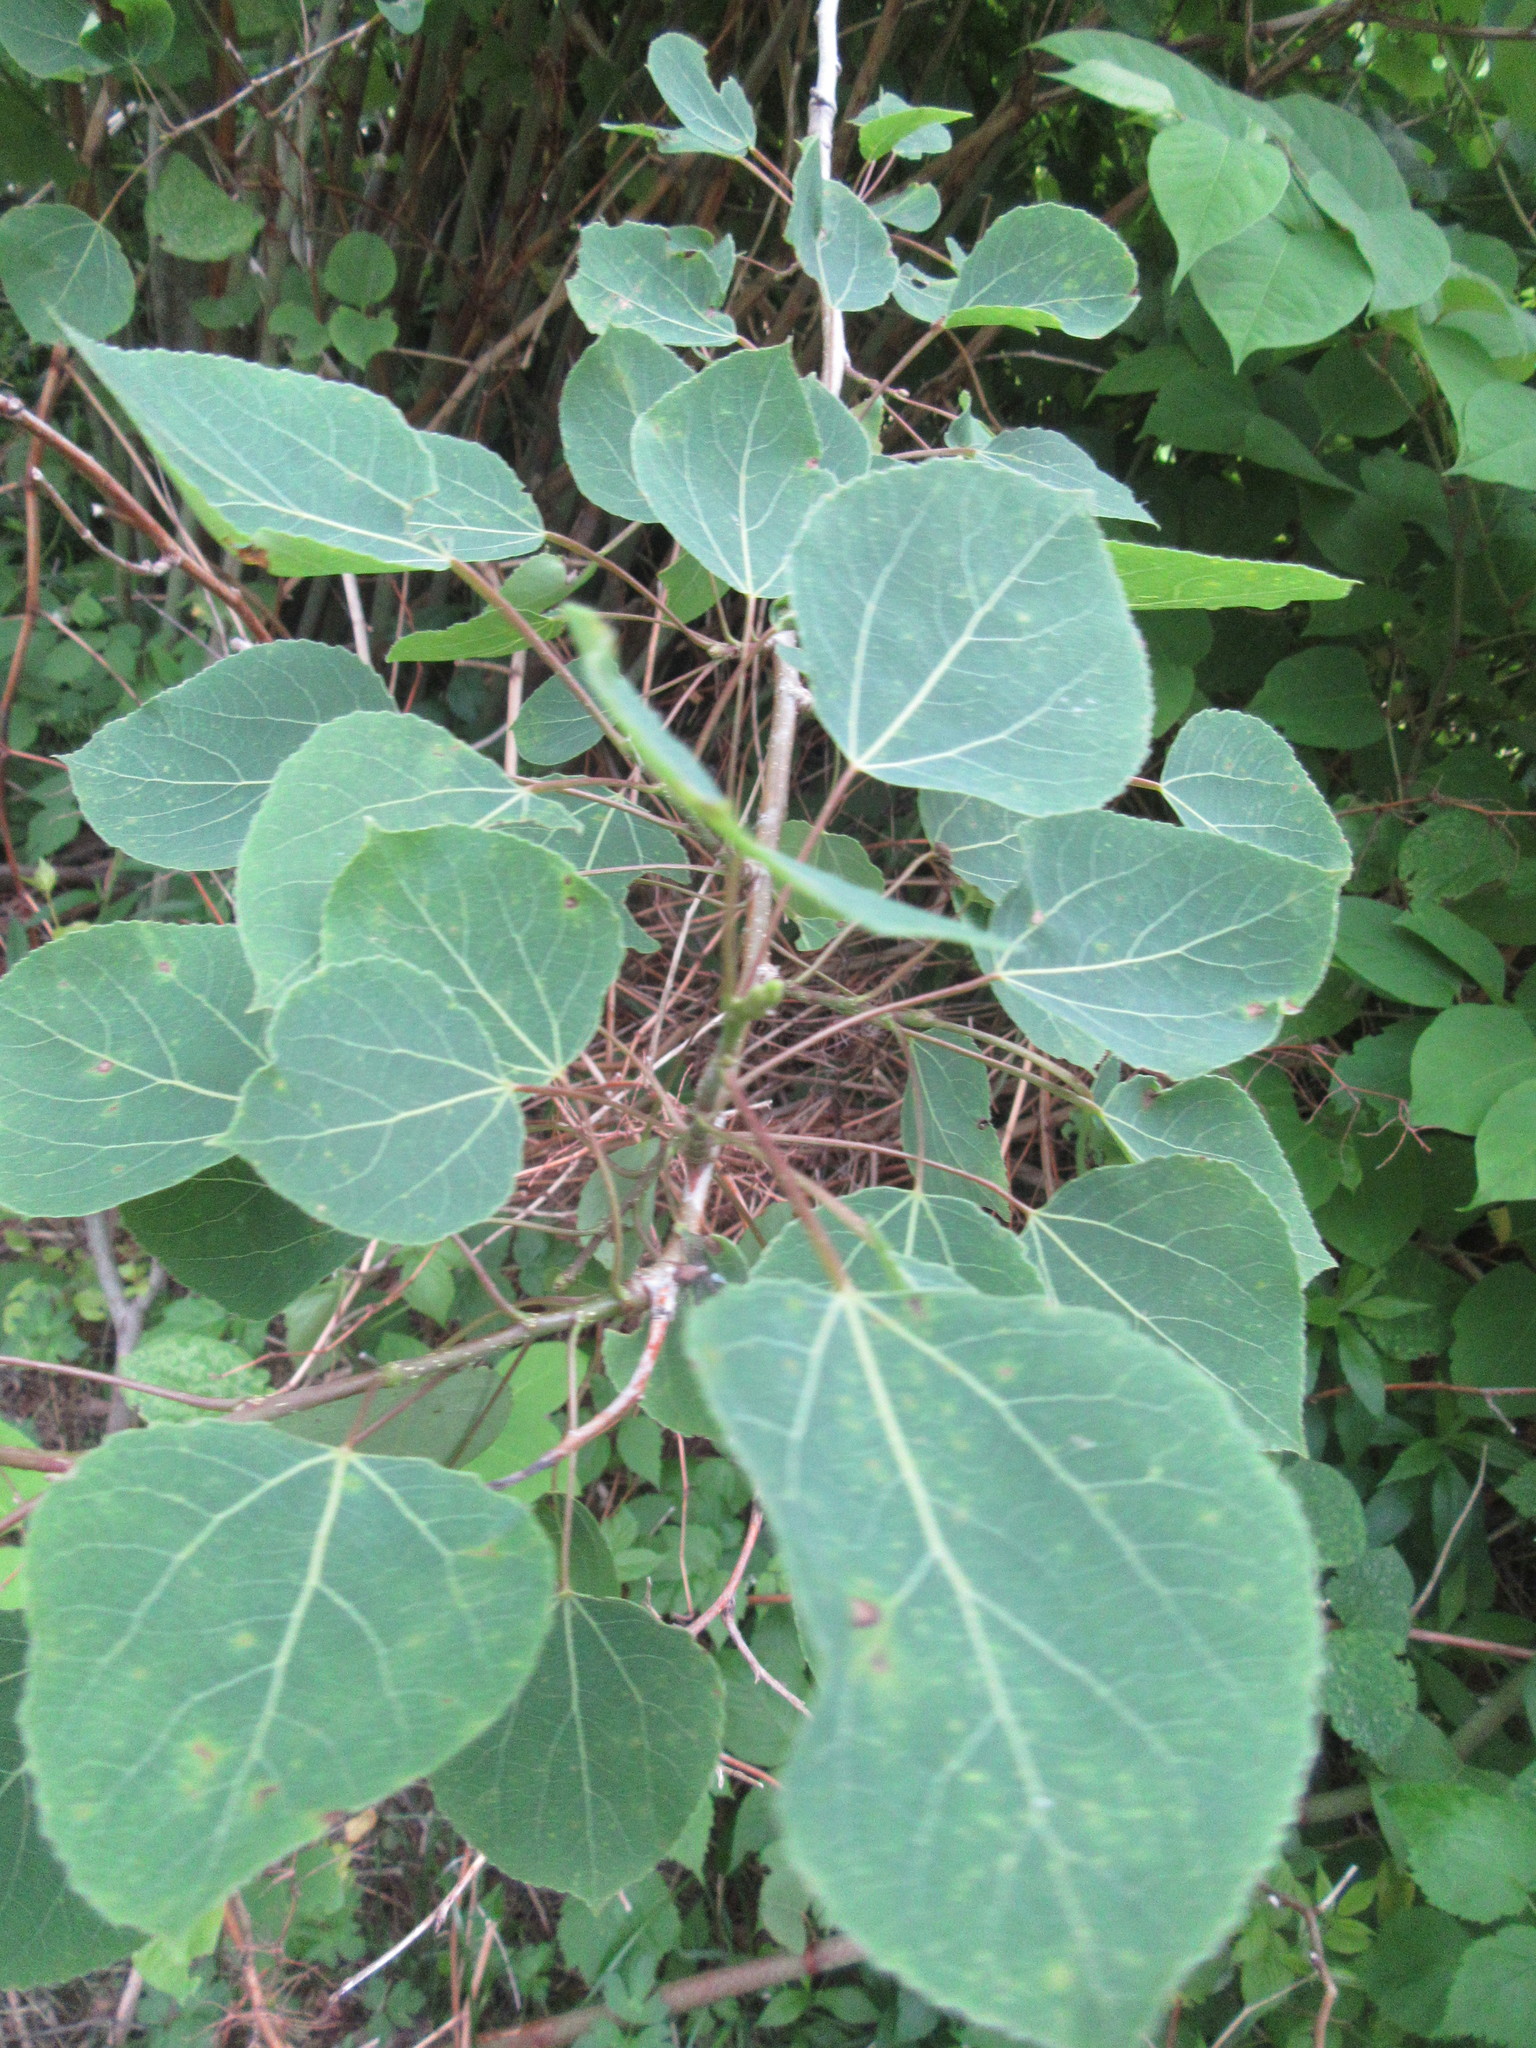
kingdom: Plantae
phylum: Tracheophyta
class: Magnoliopsida
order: Malpighiales
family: Salicaceae
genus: Populus
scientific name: Populus tremuloides
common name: Quaking aspen
